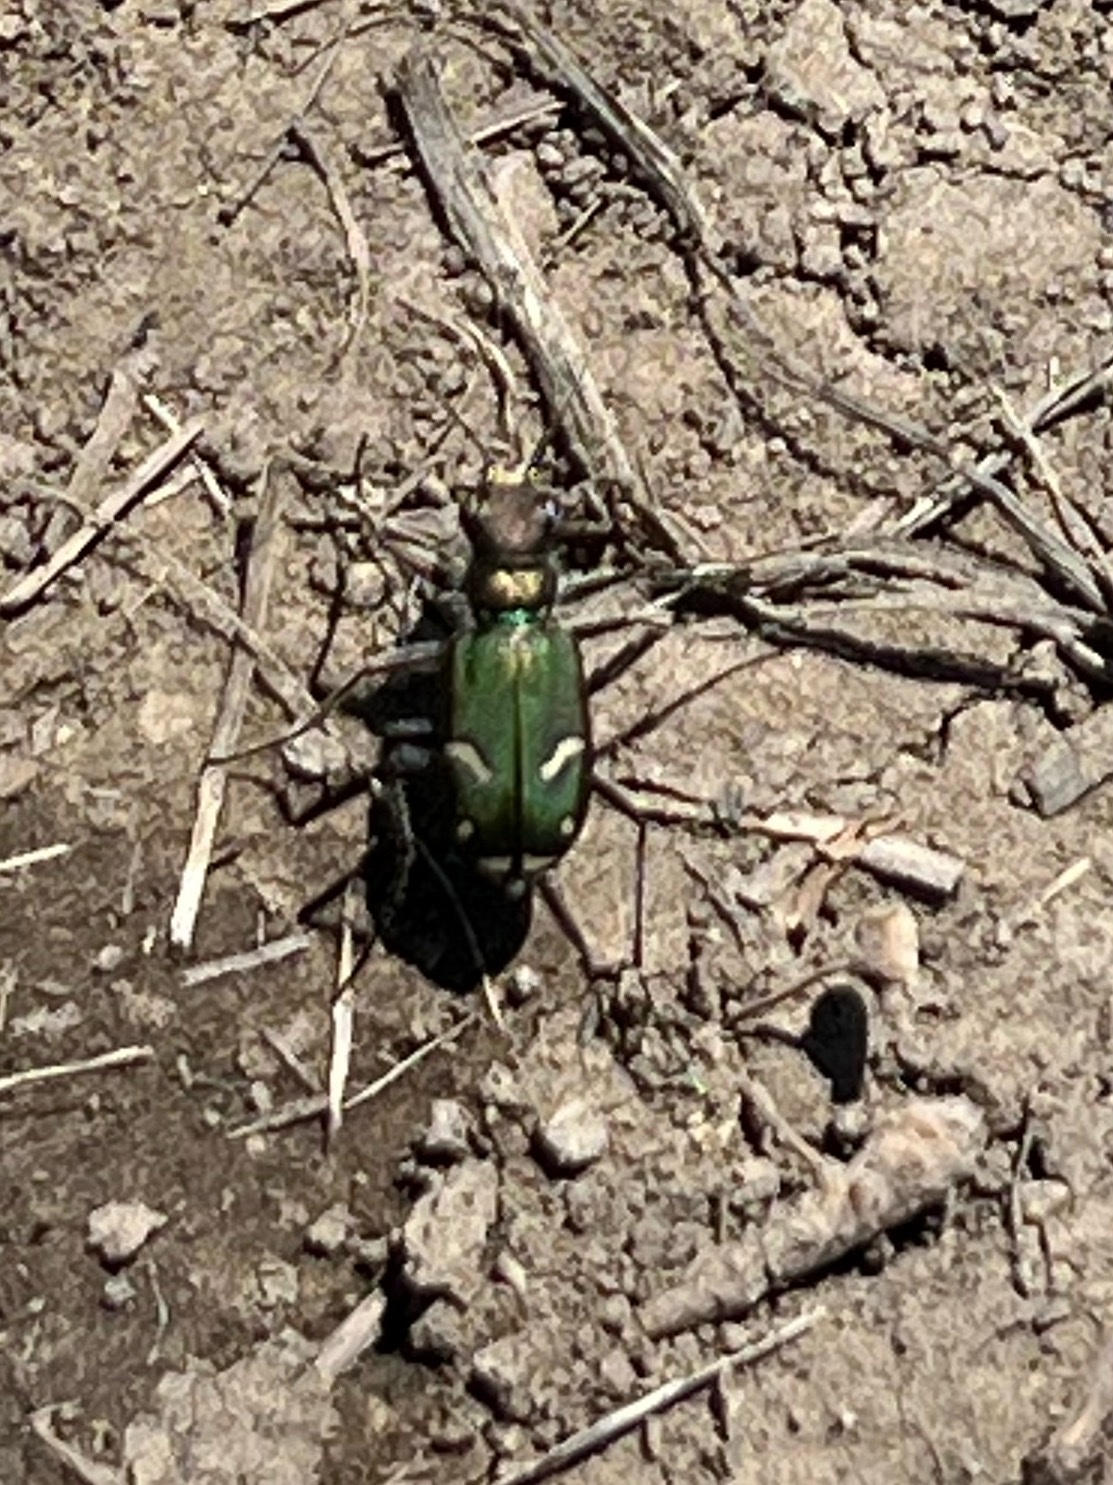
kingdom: Animalia
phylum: Arthropoda
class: Insecta
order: Coleoptera
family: Carabidae
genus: Cicindela
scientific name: Cicindela purpurea
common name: Cow path tiger beetle
